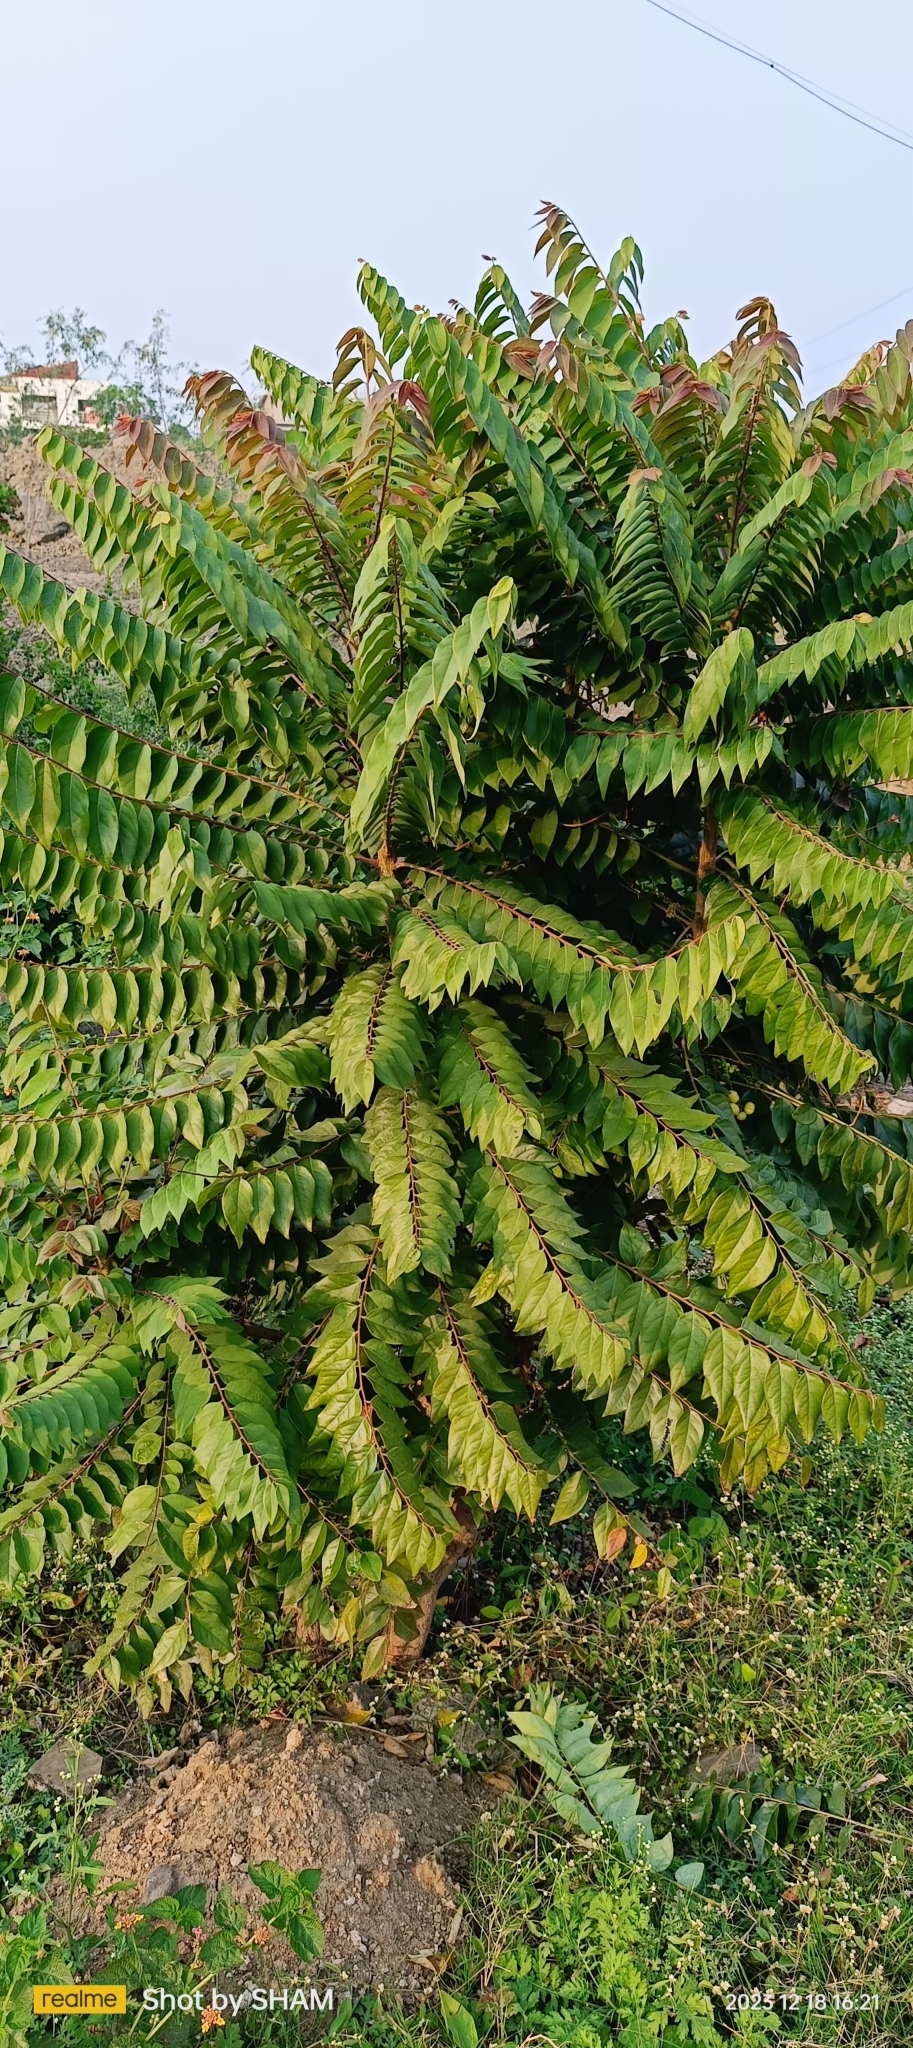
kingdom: Plantae
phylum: Tracheophyta
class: Magnoliopsida
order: Malpighiales
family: Phyllanthaceae
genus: Phyllanthus
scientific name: Phyllanthus acidus
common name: Tahitian gooseberry tree
